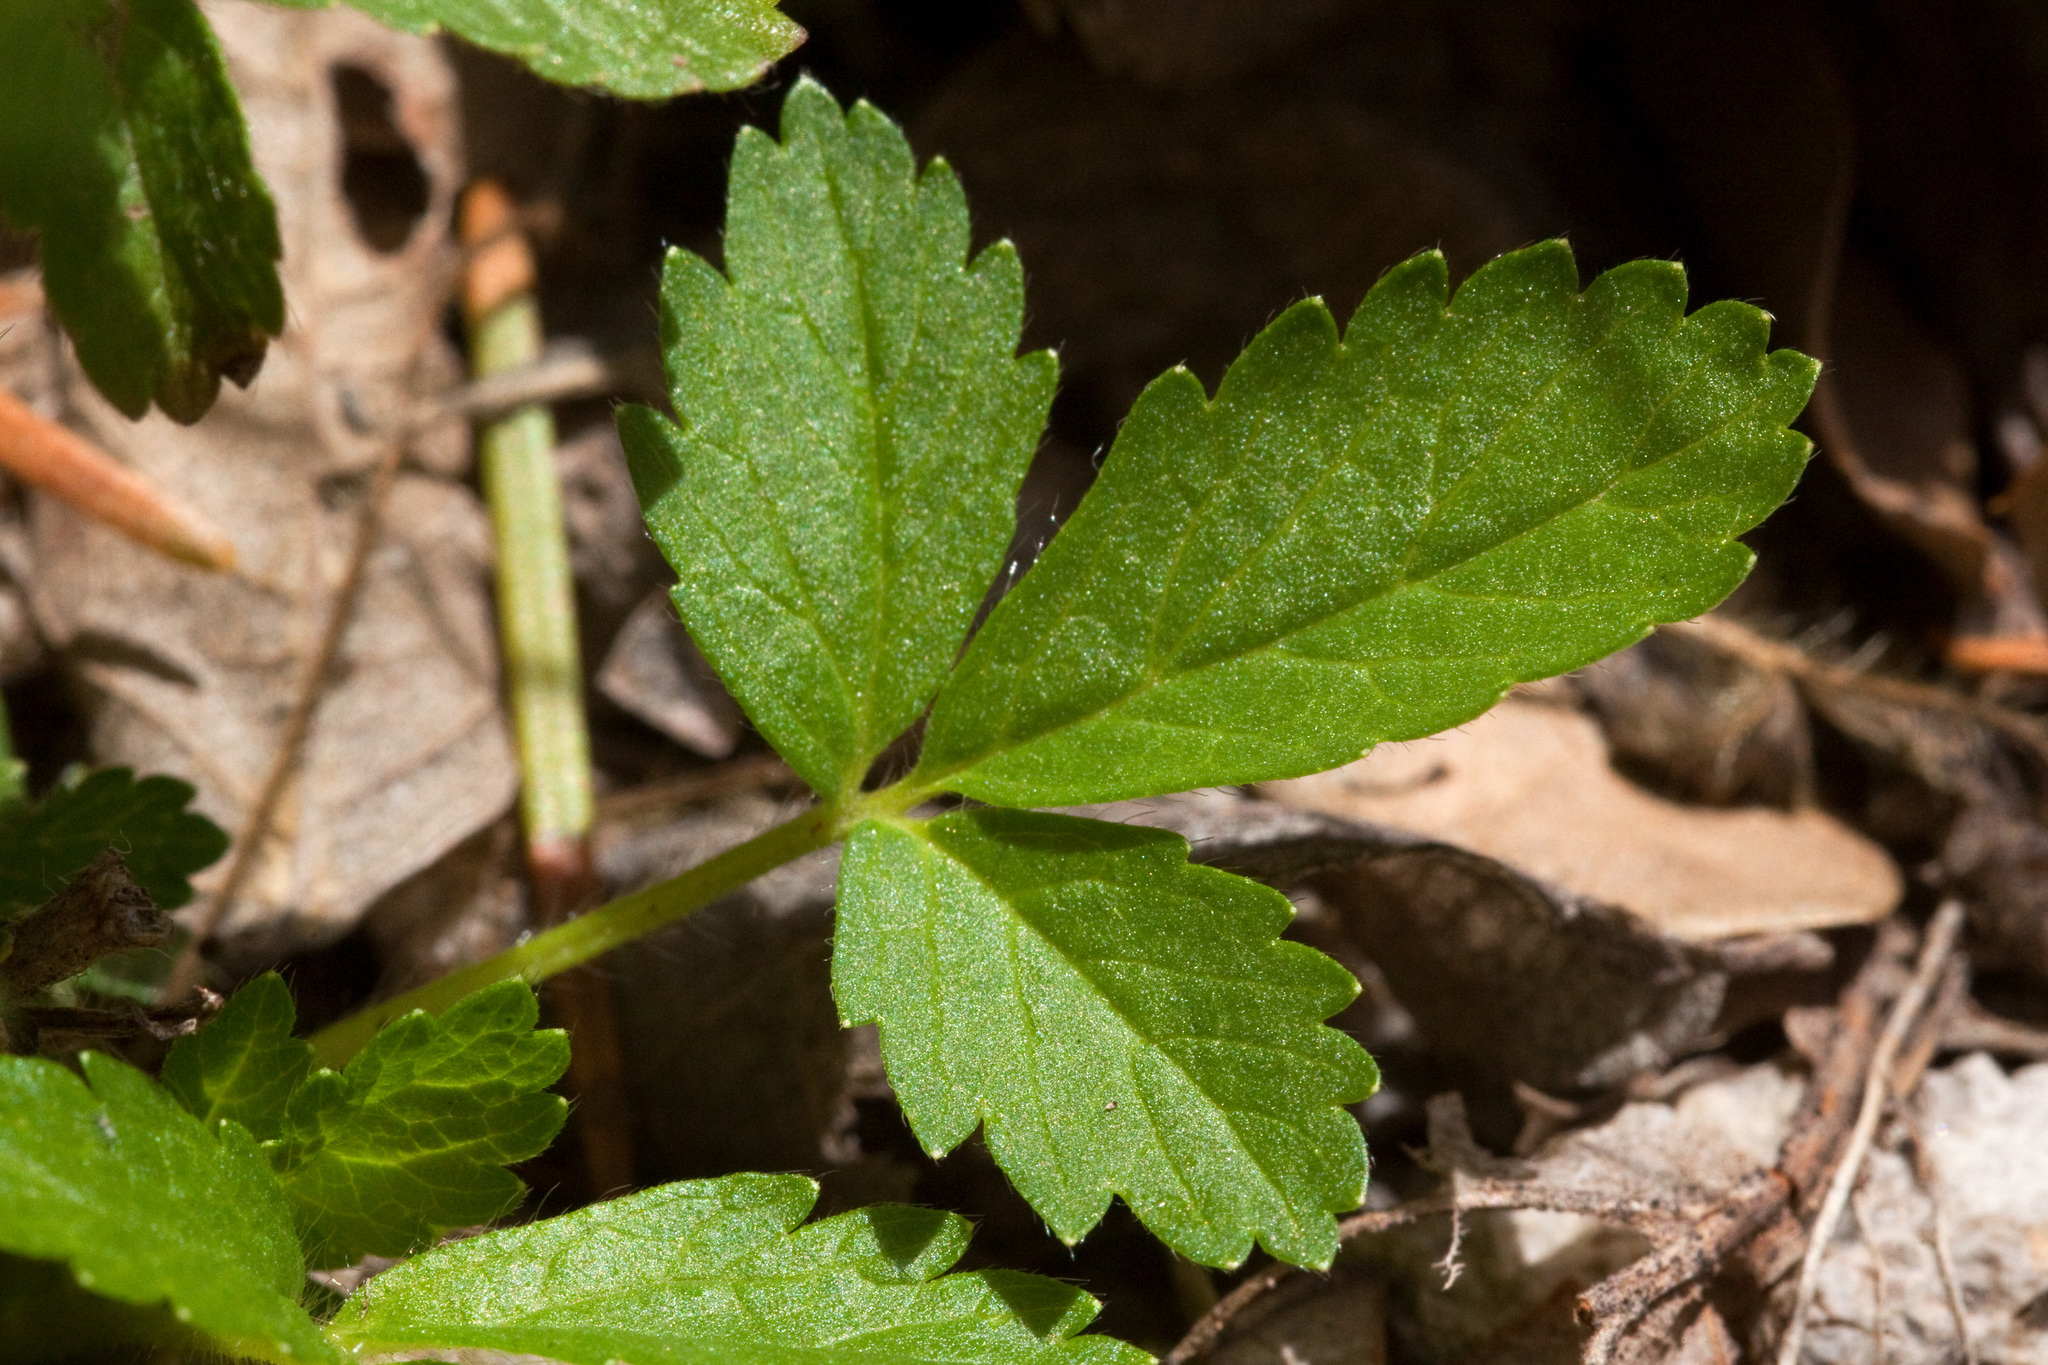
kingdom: Plantae
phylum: Tracheophyta
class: Magnoliopsida
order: Rosales
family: Rosaceae
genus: Potentilla
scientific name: Potentilla norvegica
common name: Ternate-leaved cinquefoil
